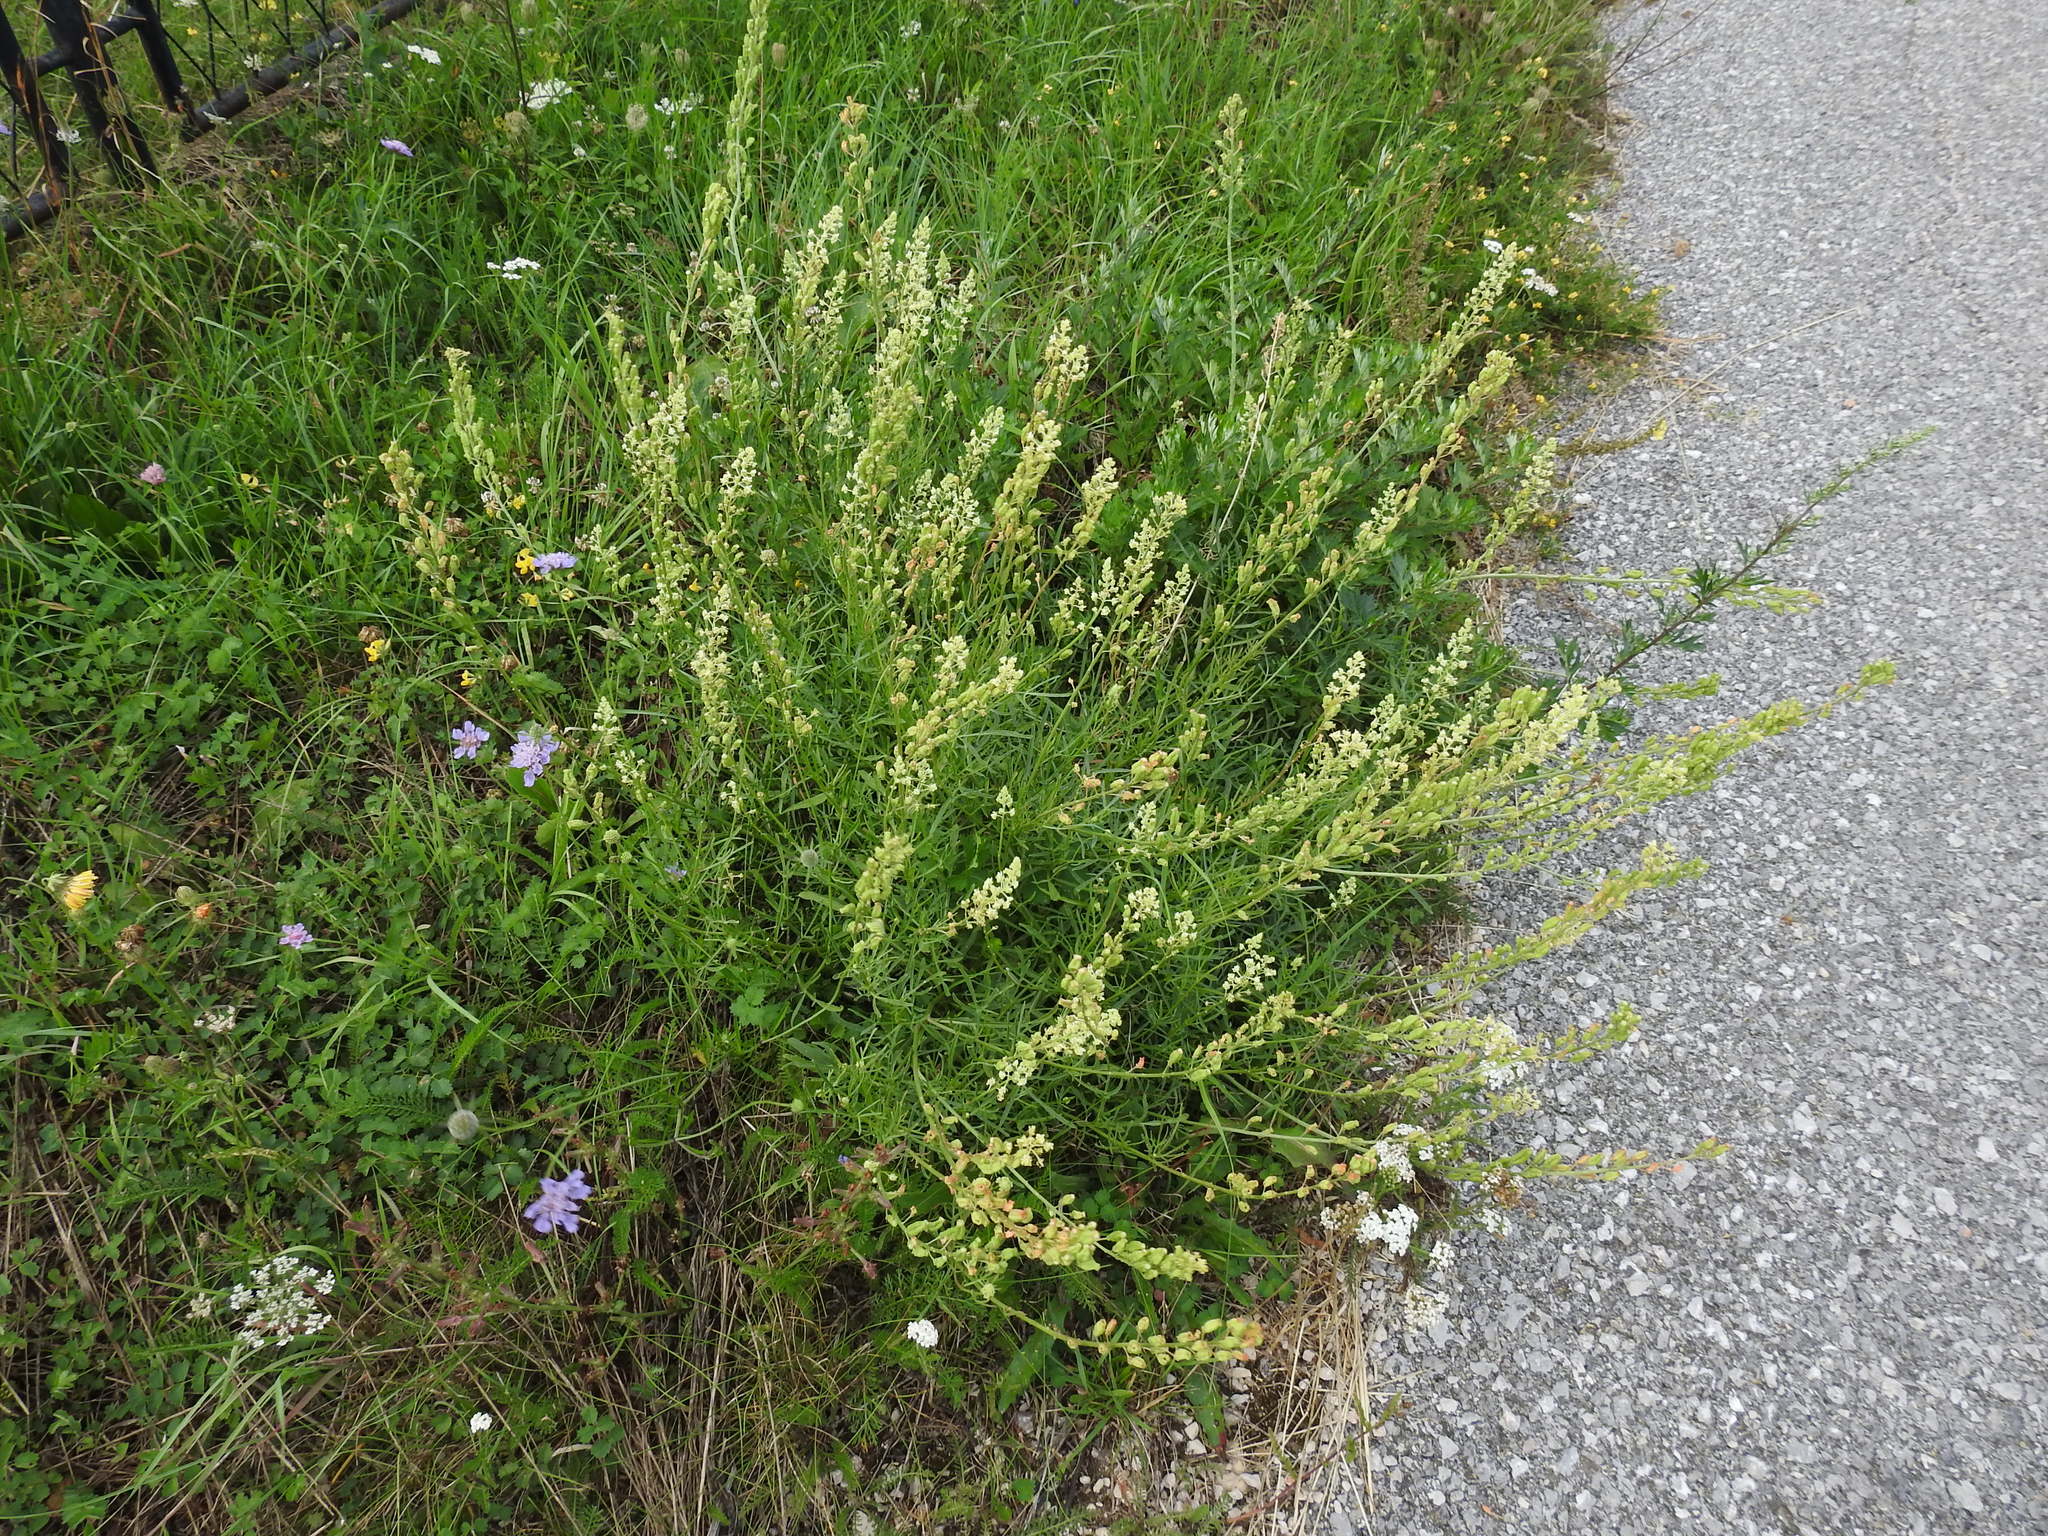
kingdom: Plantae
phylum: Tracheophyta
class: Magnoliopsida
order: Brassicales
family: Resedaceae
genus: Reseda
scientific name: Reseda lutea
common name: Wild mignonette
